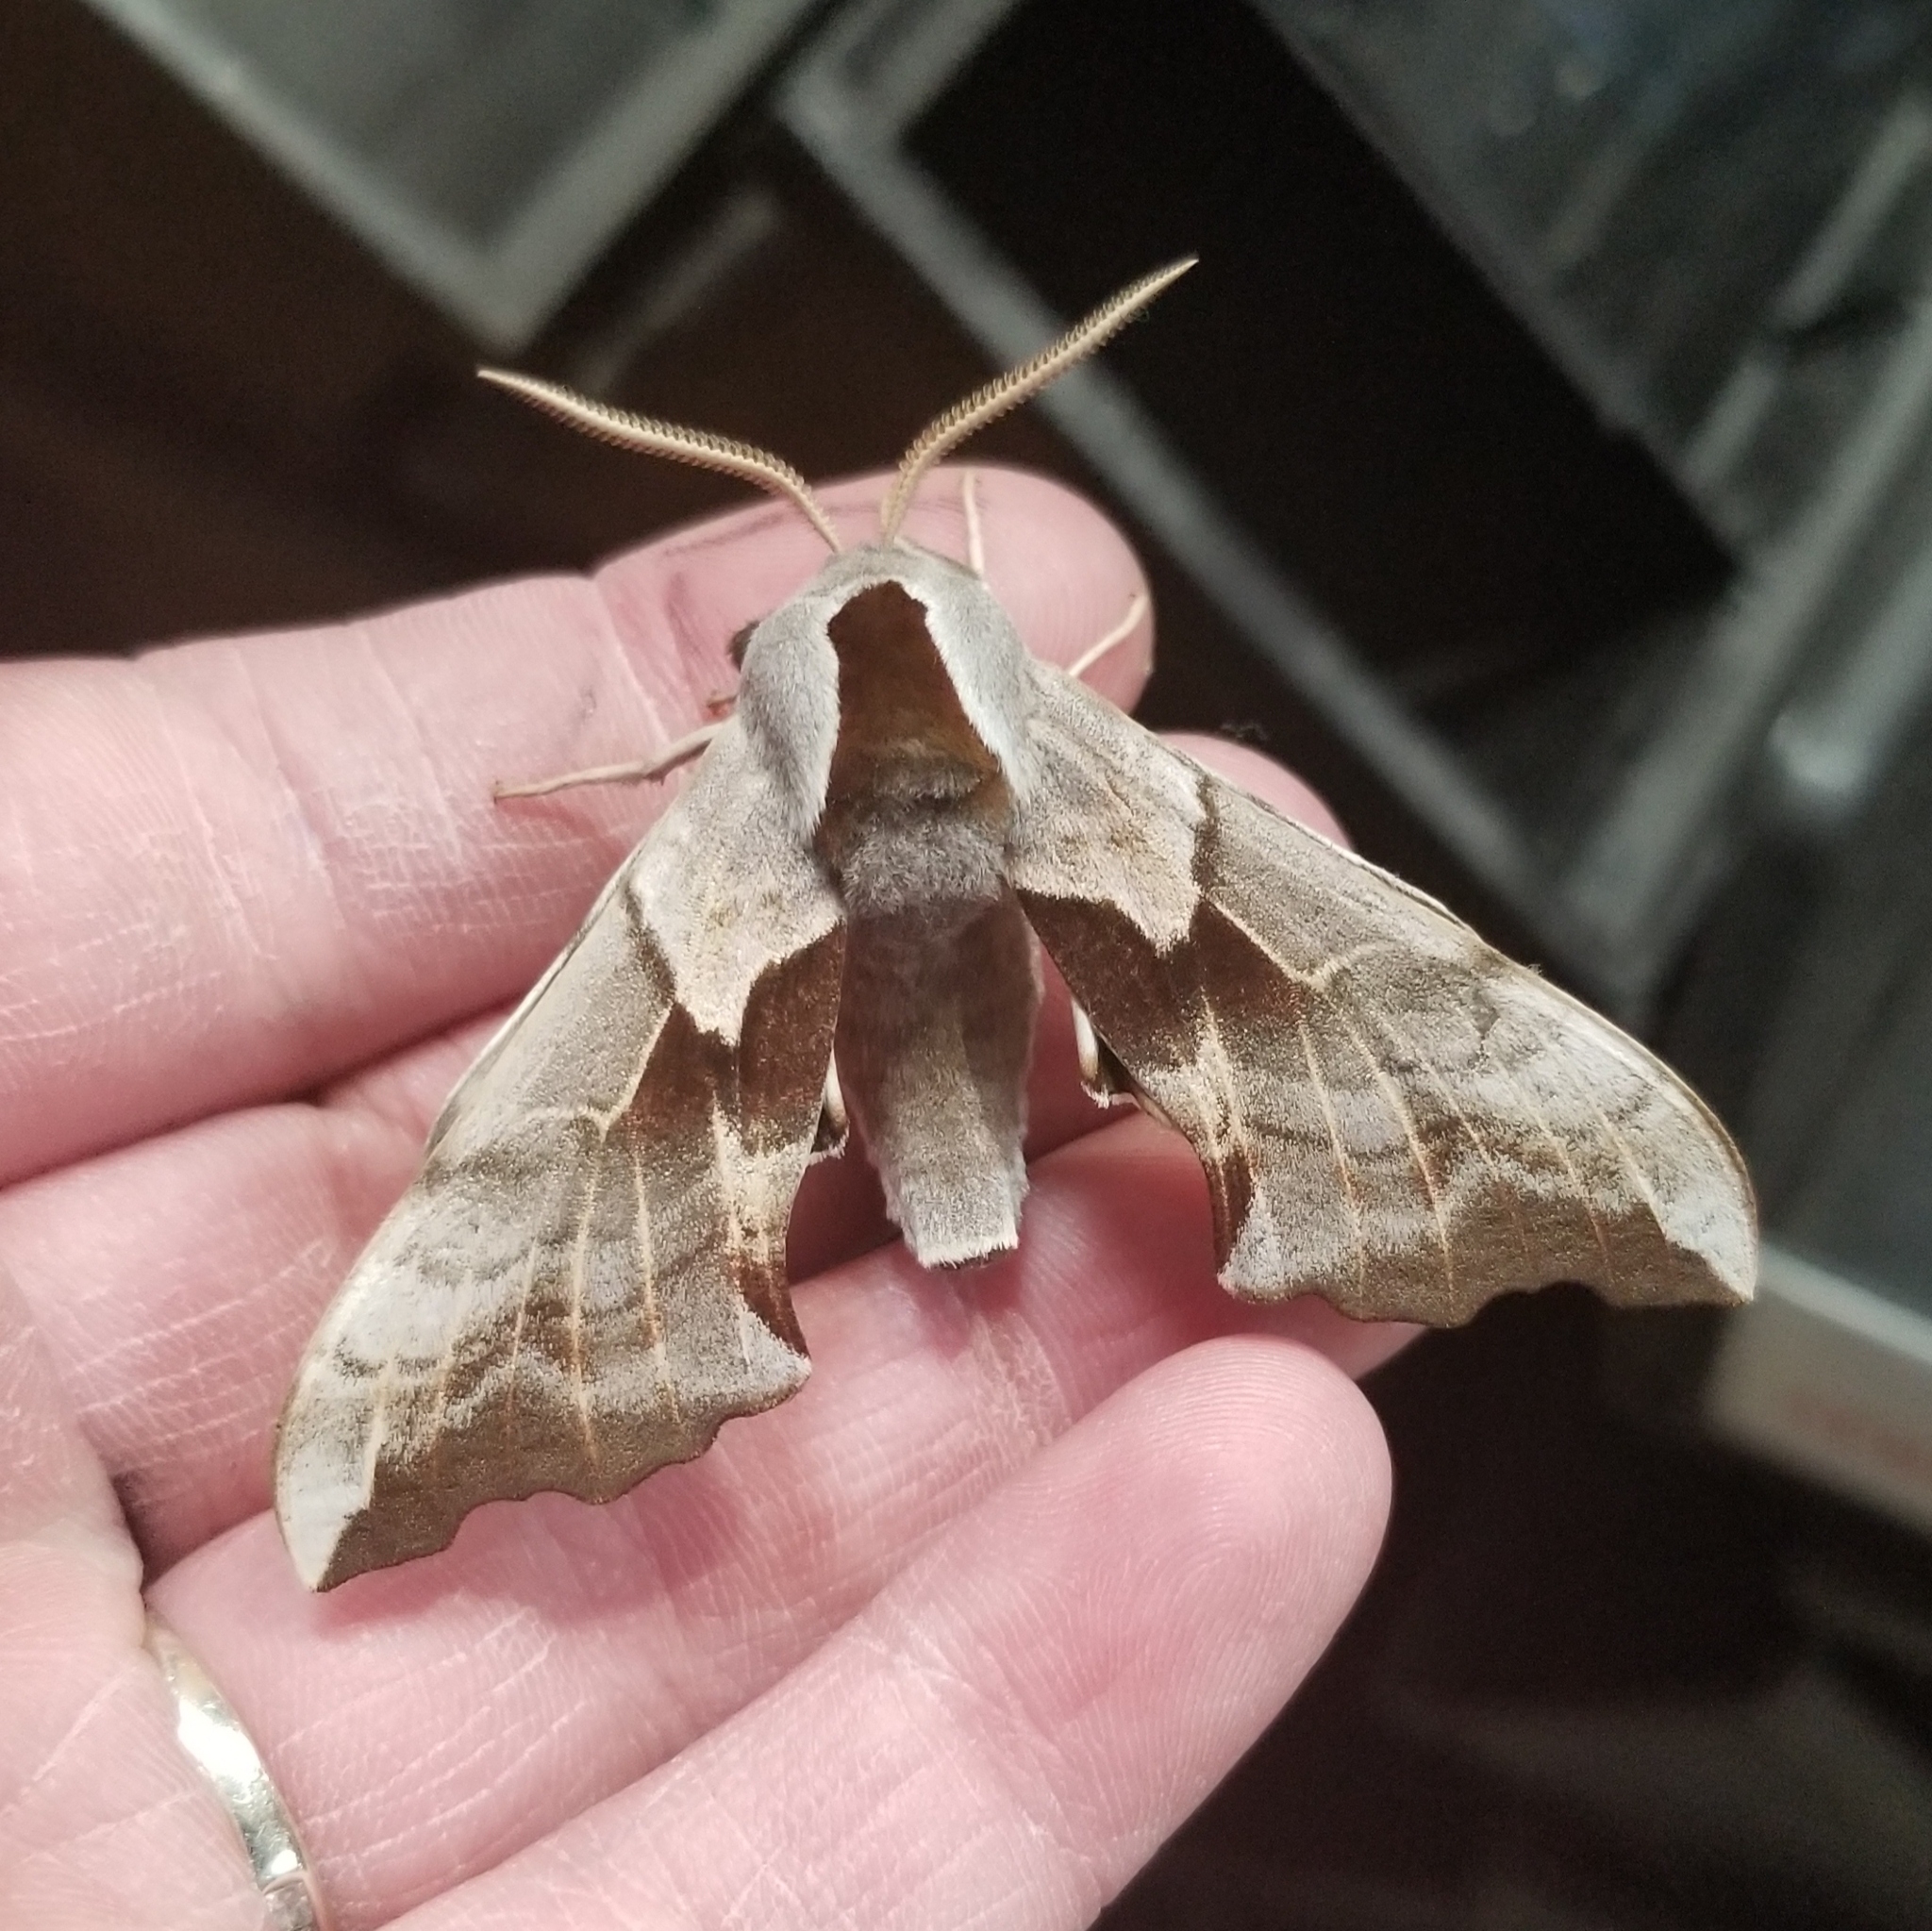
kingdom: Animalia
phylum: Arthropoda
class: Insecta
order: Lepidoptera
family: Sphingidae
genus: Smerinthus
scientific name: Smerinthus cerisyi
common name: Cerisy's sphinx moth
